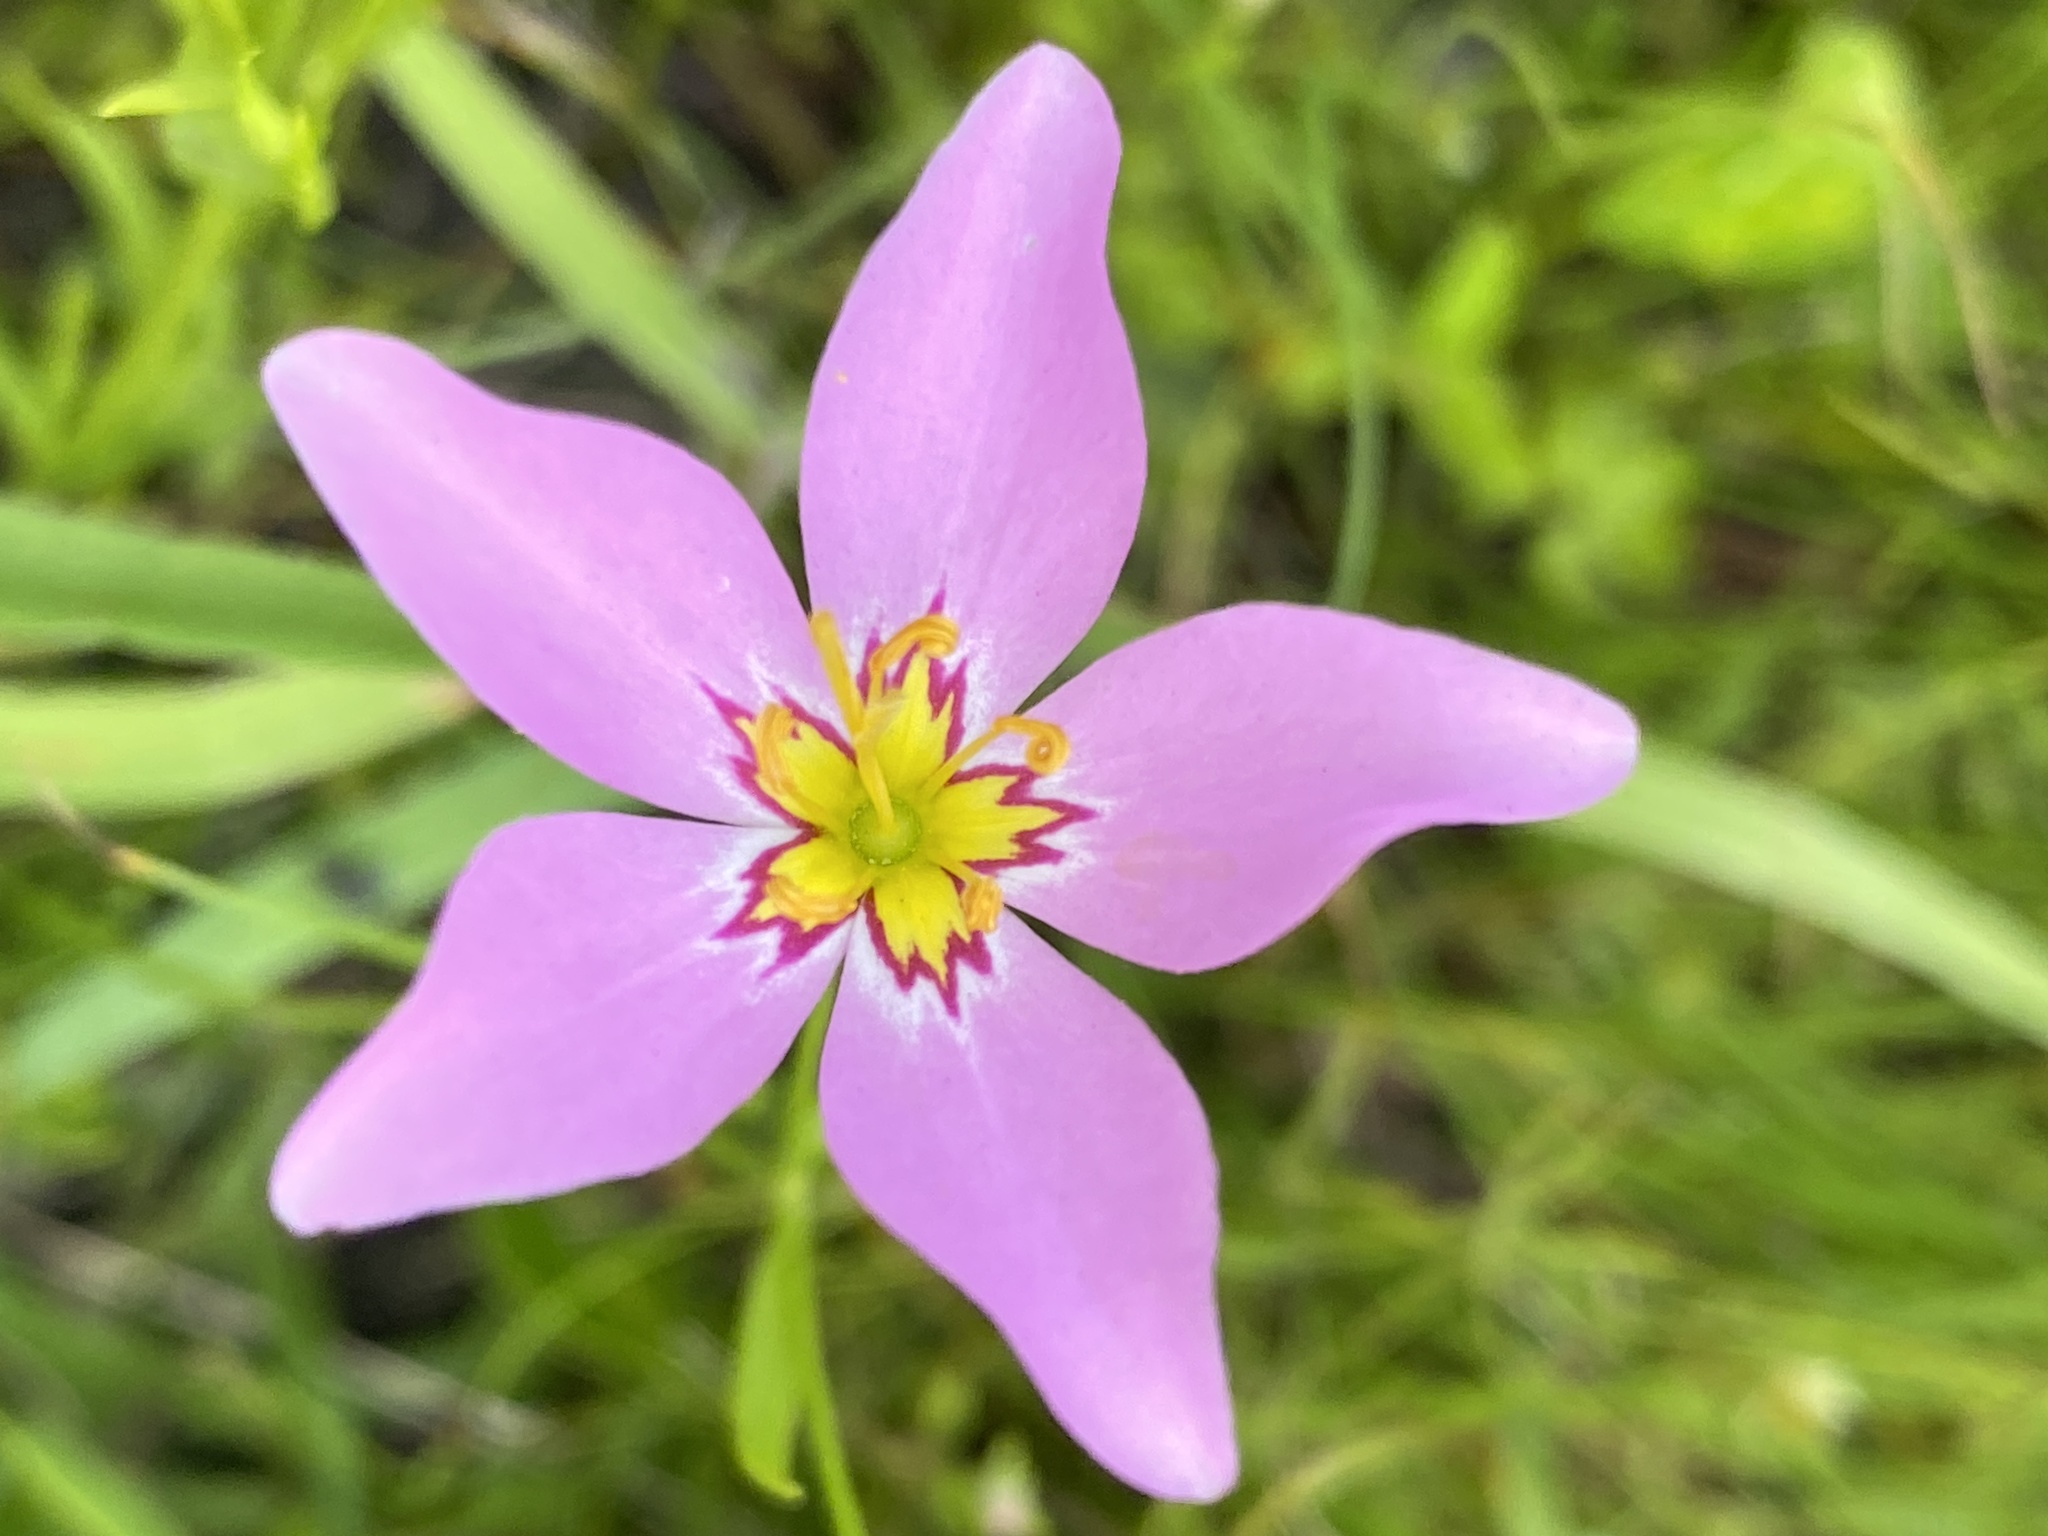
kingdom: Plantae
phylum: Tracheophyta
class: Magnoliopsida
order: Gentianales
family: Gentianaceae
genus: Sabatia
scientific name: Sabatia stellaris
